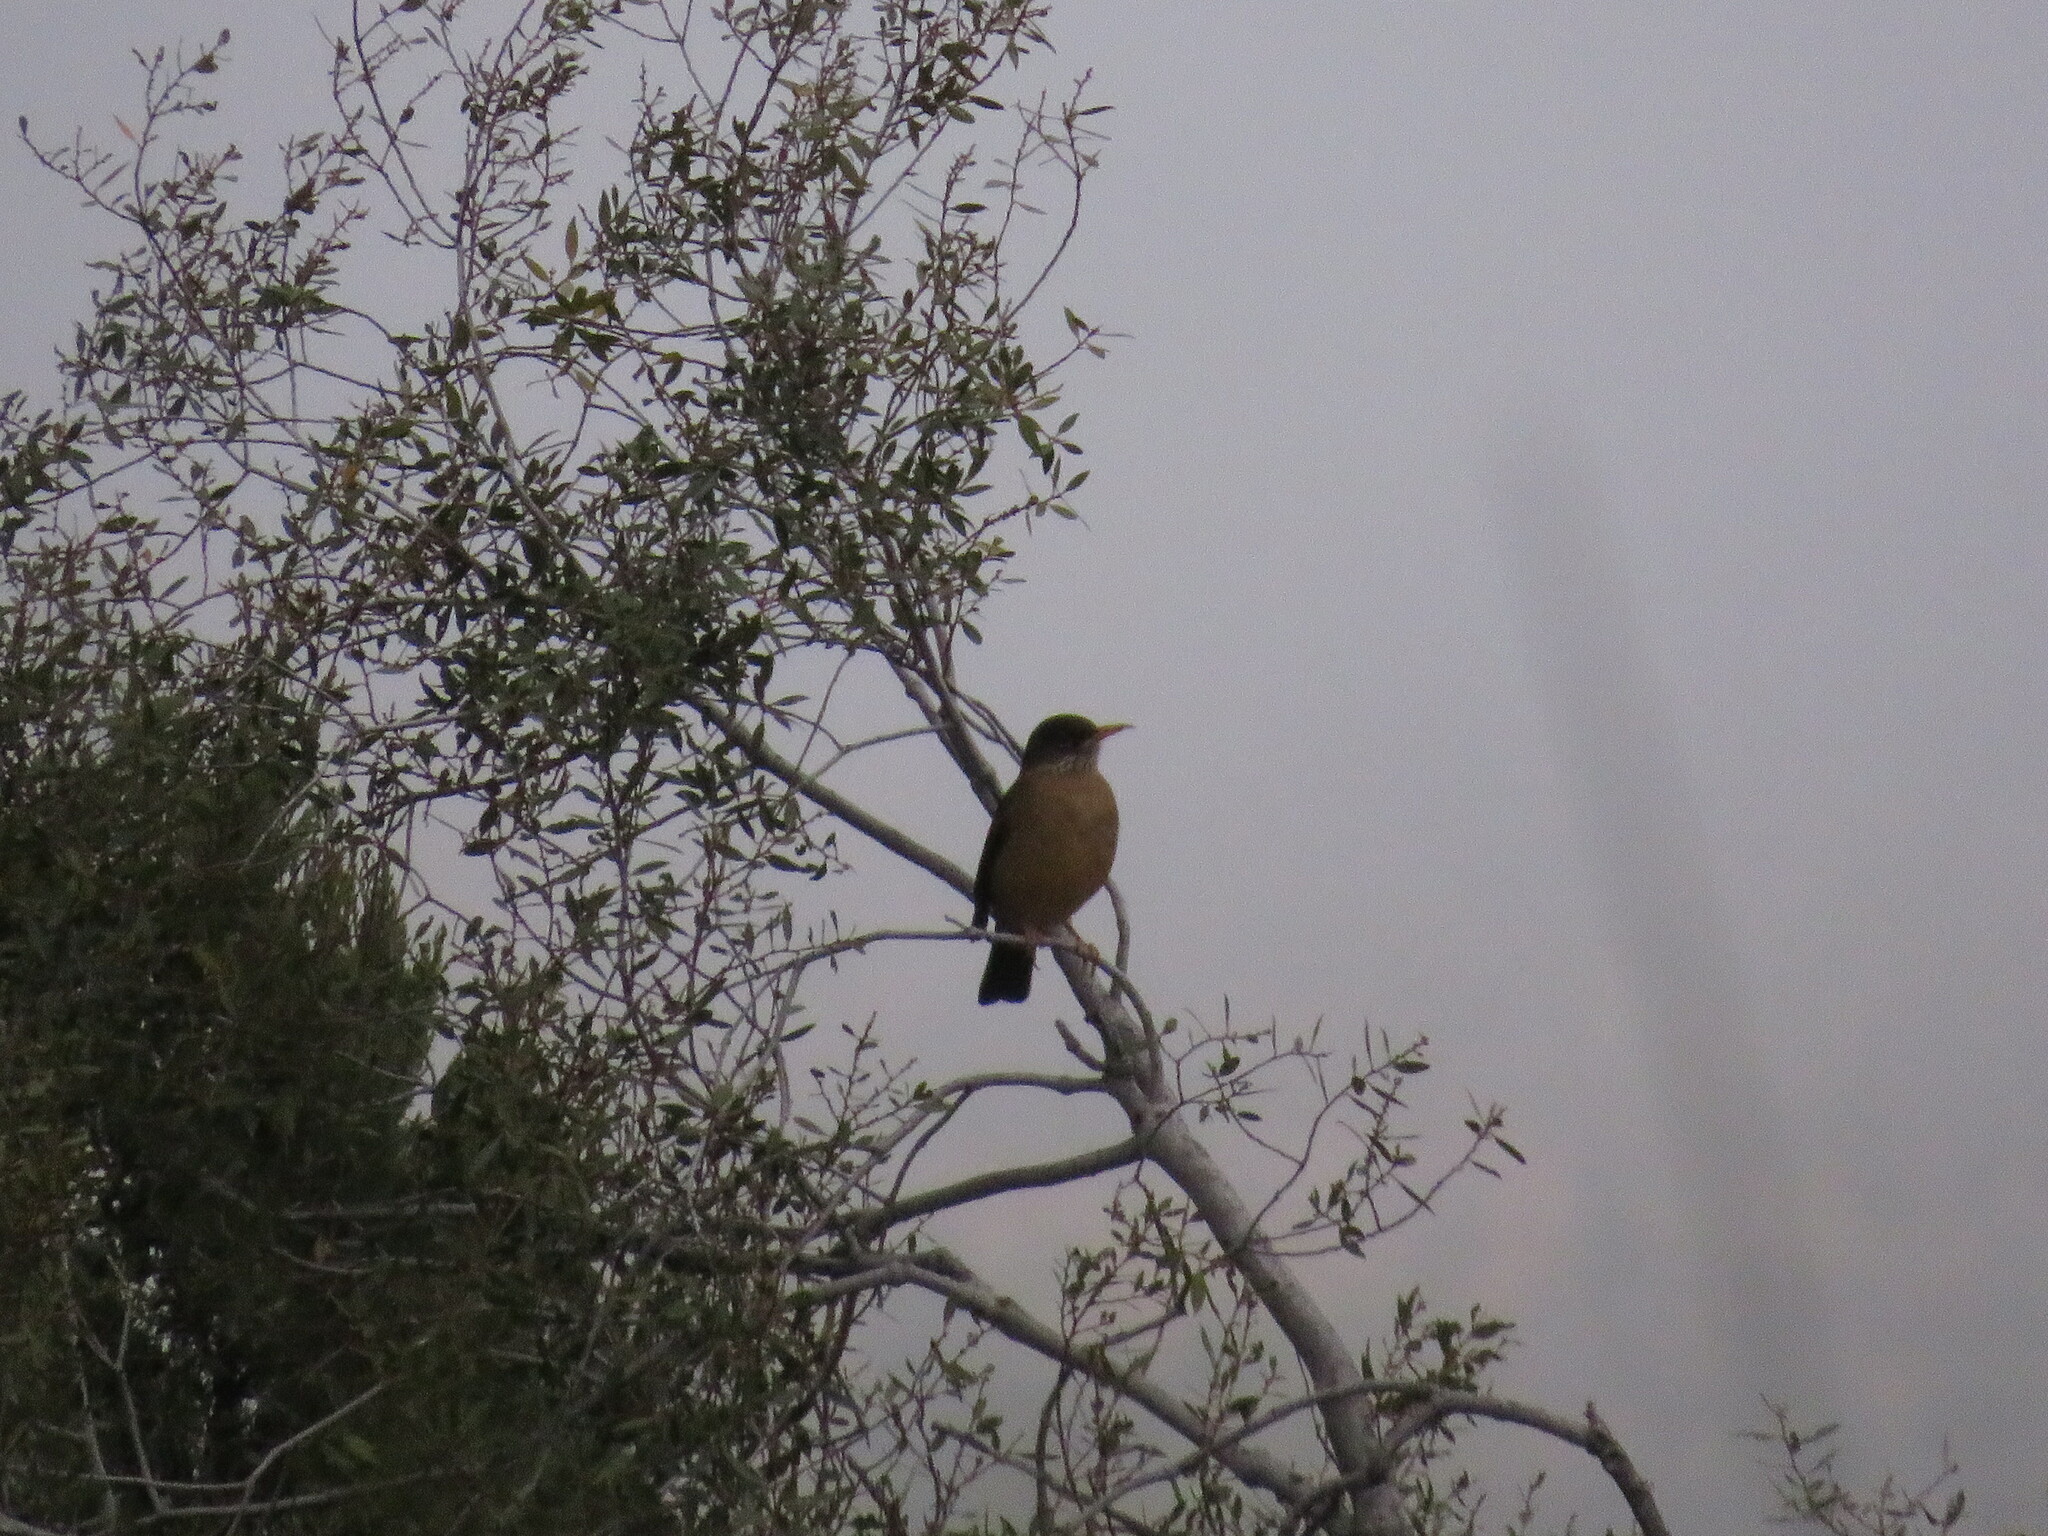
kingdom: Animalia
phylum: Chordata
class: Aves
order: Passeriformes
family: Turdidae
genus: Turdus
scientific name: Turdus falcklandii
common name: Austral thrush
